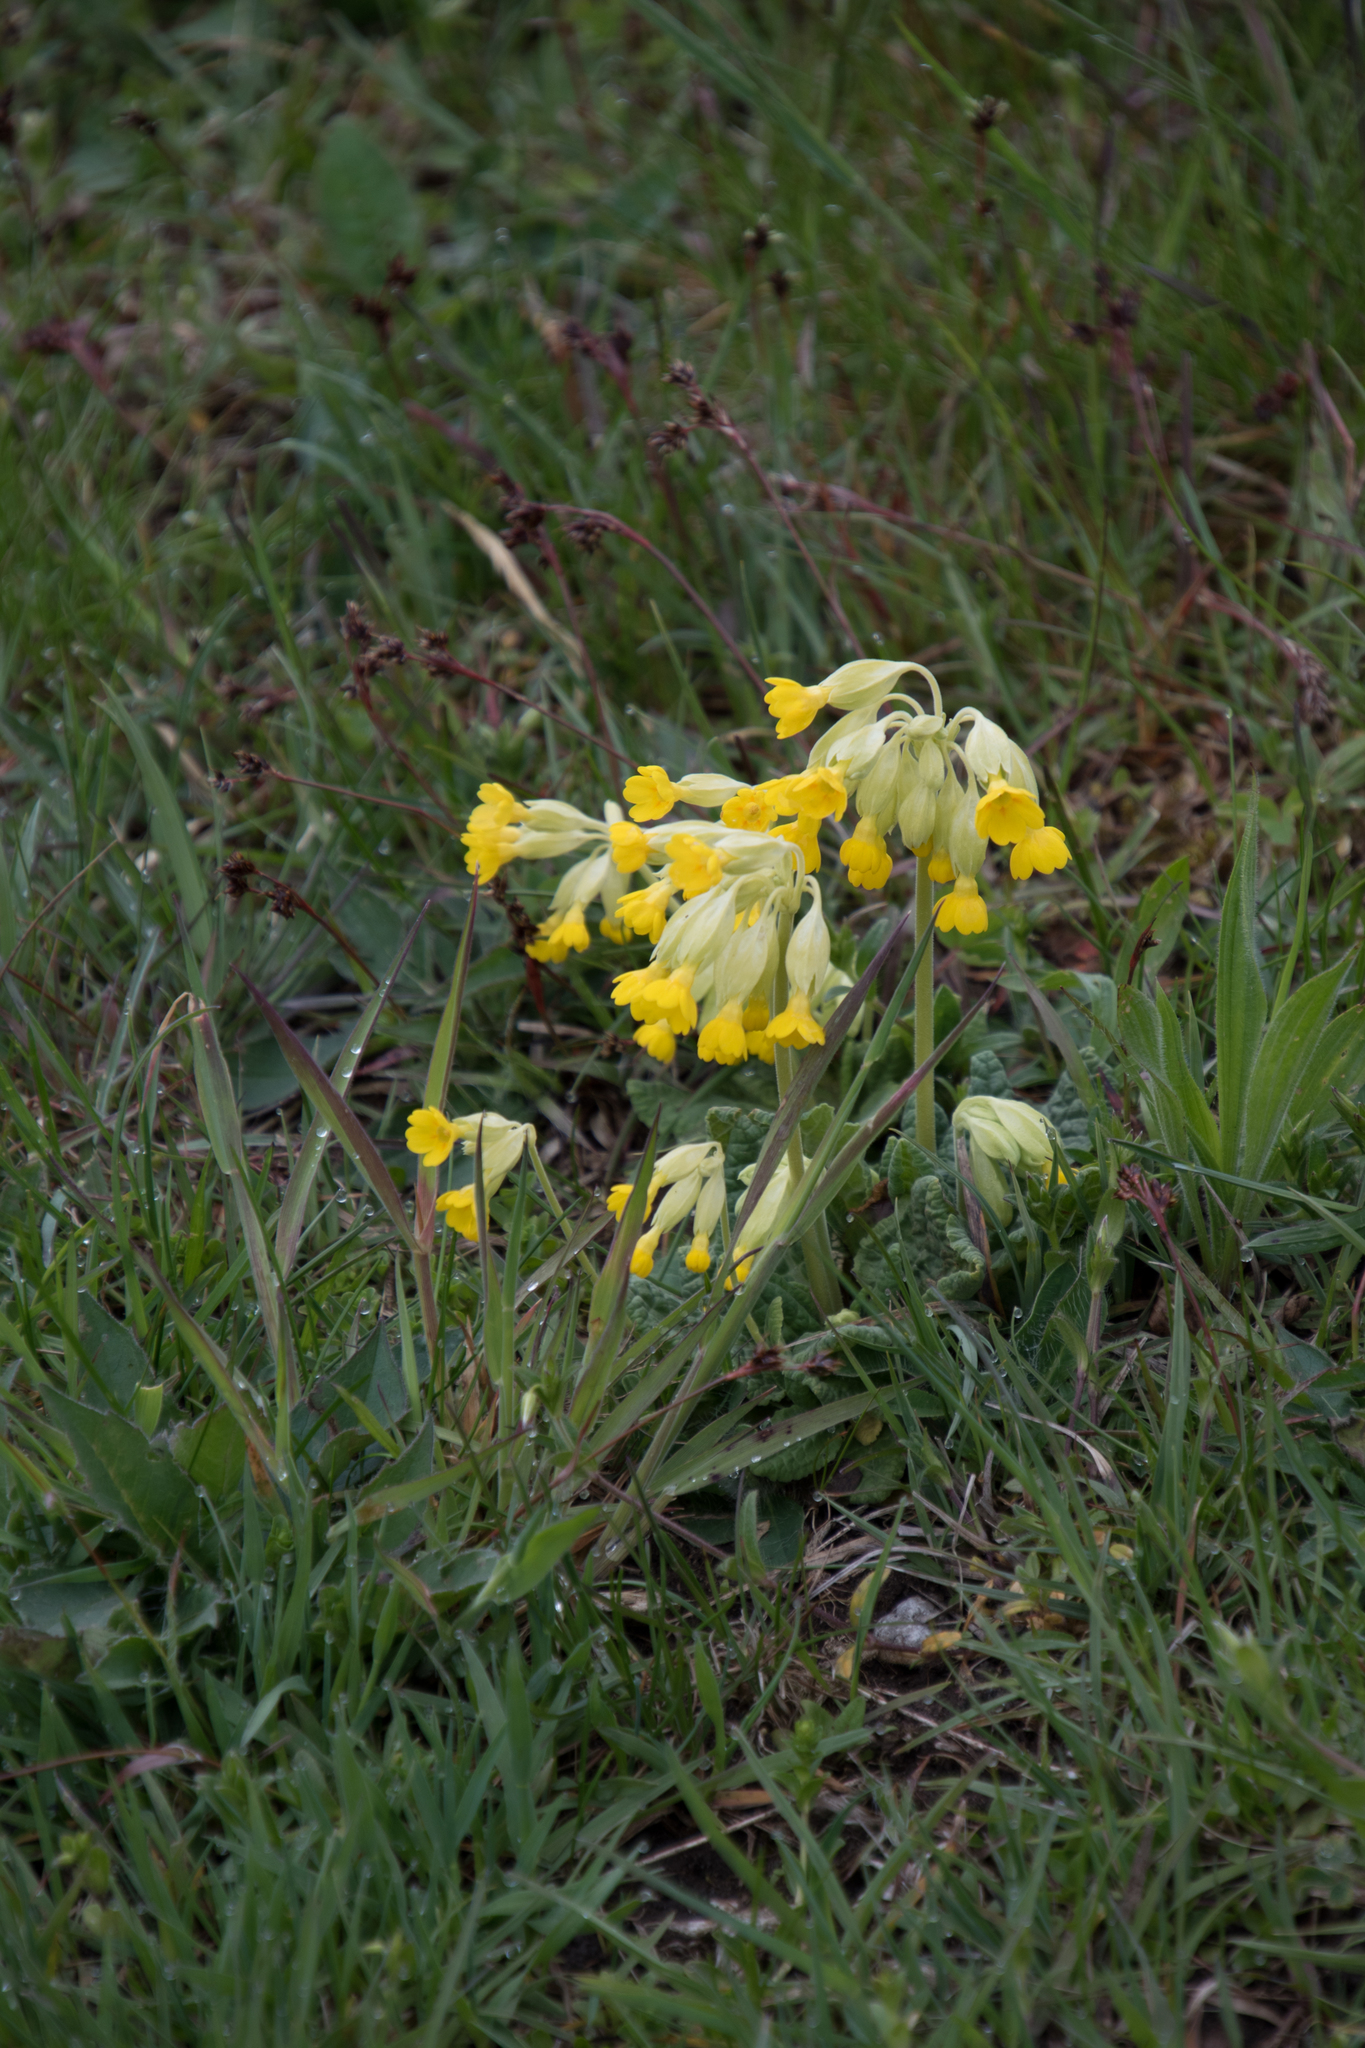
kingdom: Plantae
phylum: Tracheophyta
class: Magnoliopsida
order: Ericales
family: Primulaceae
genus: Primula
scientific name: Primula veris
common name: Cowslip
